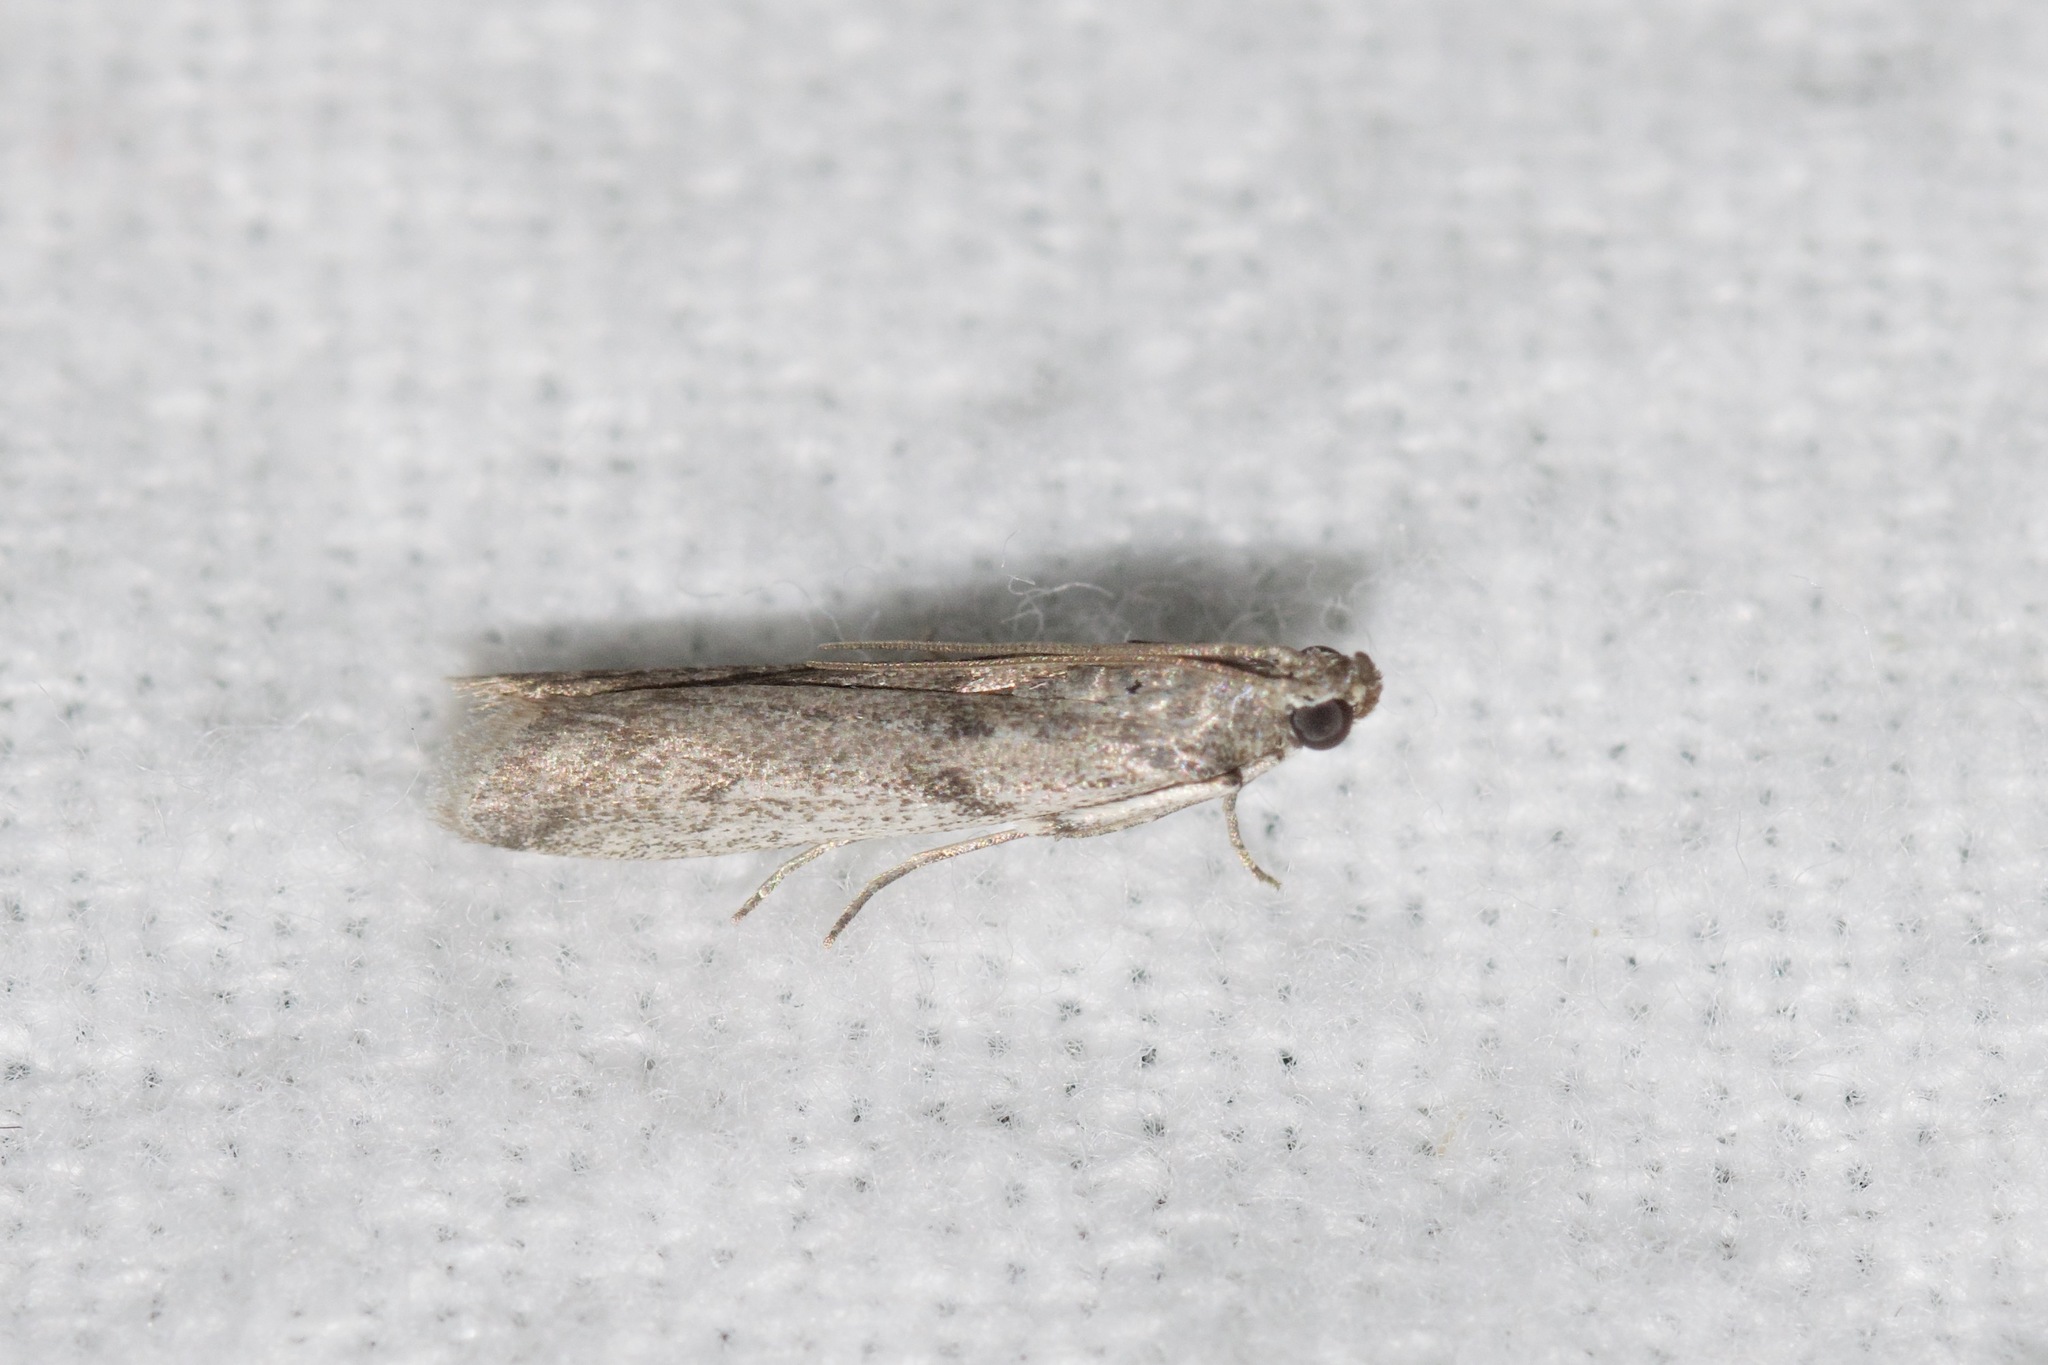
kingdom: Animalia
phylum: Arthropoda
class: Insecta
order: Lepidoptera
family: Pyralidae
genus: Phycitodes
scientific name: Phycitodes mucidellus
